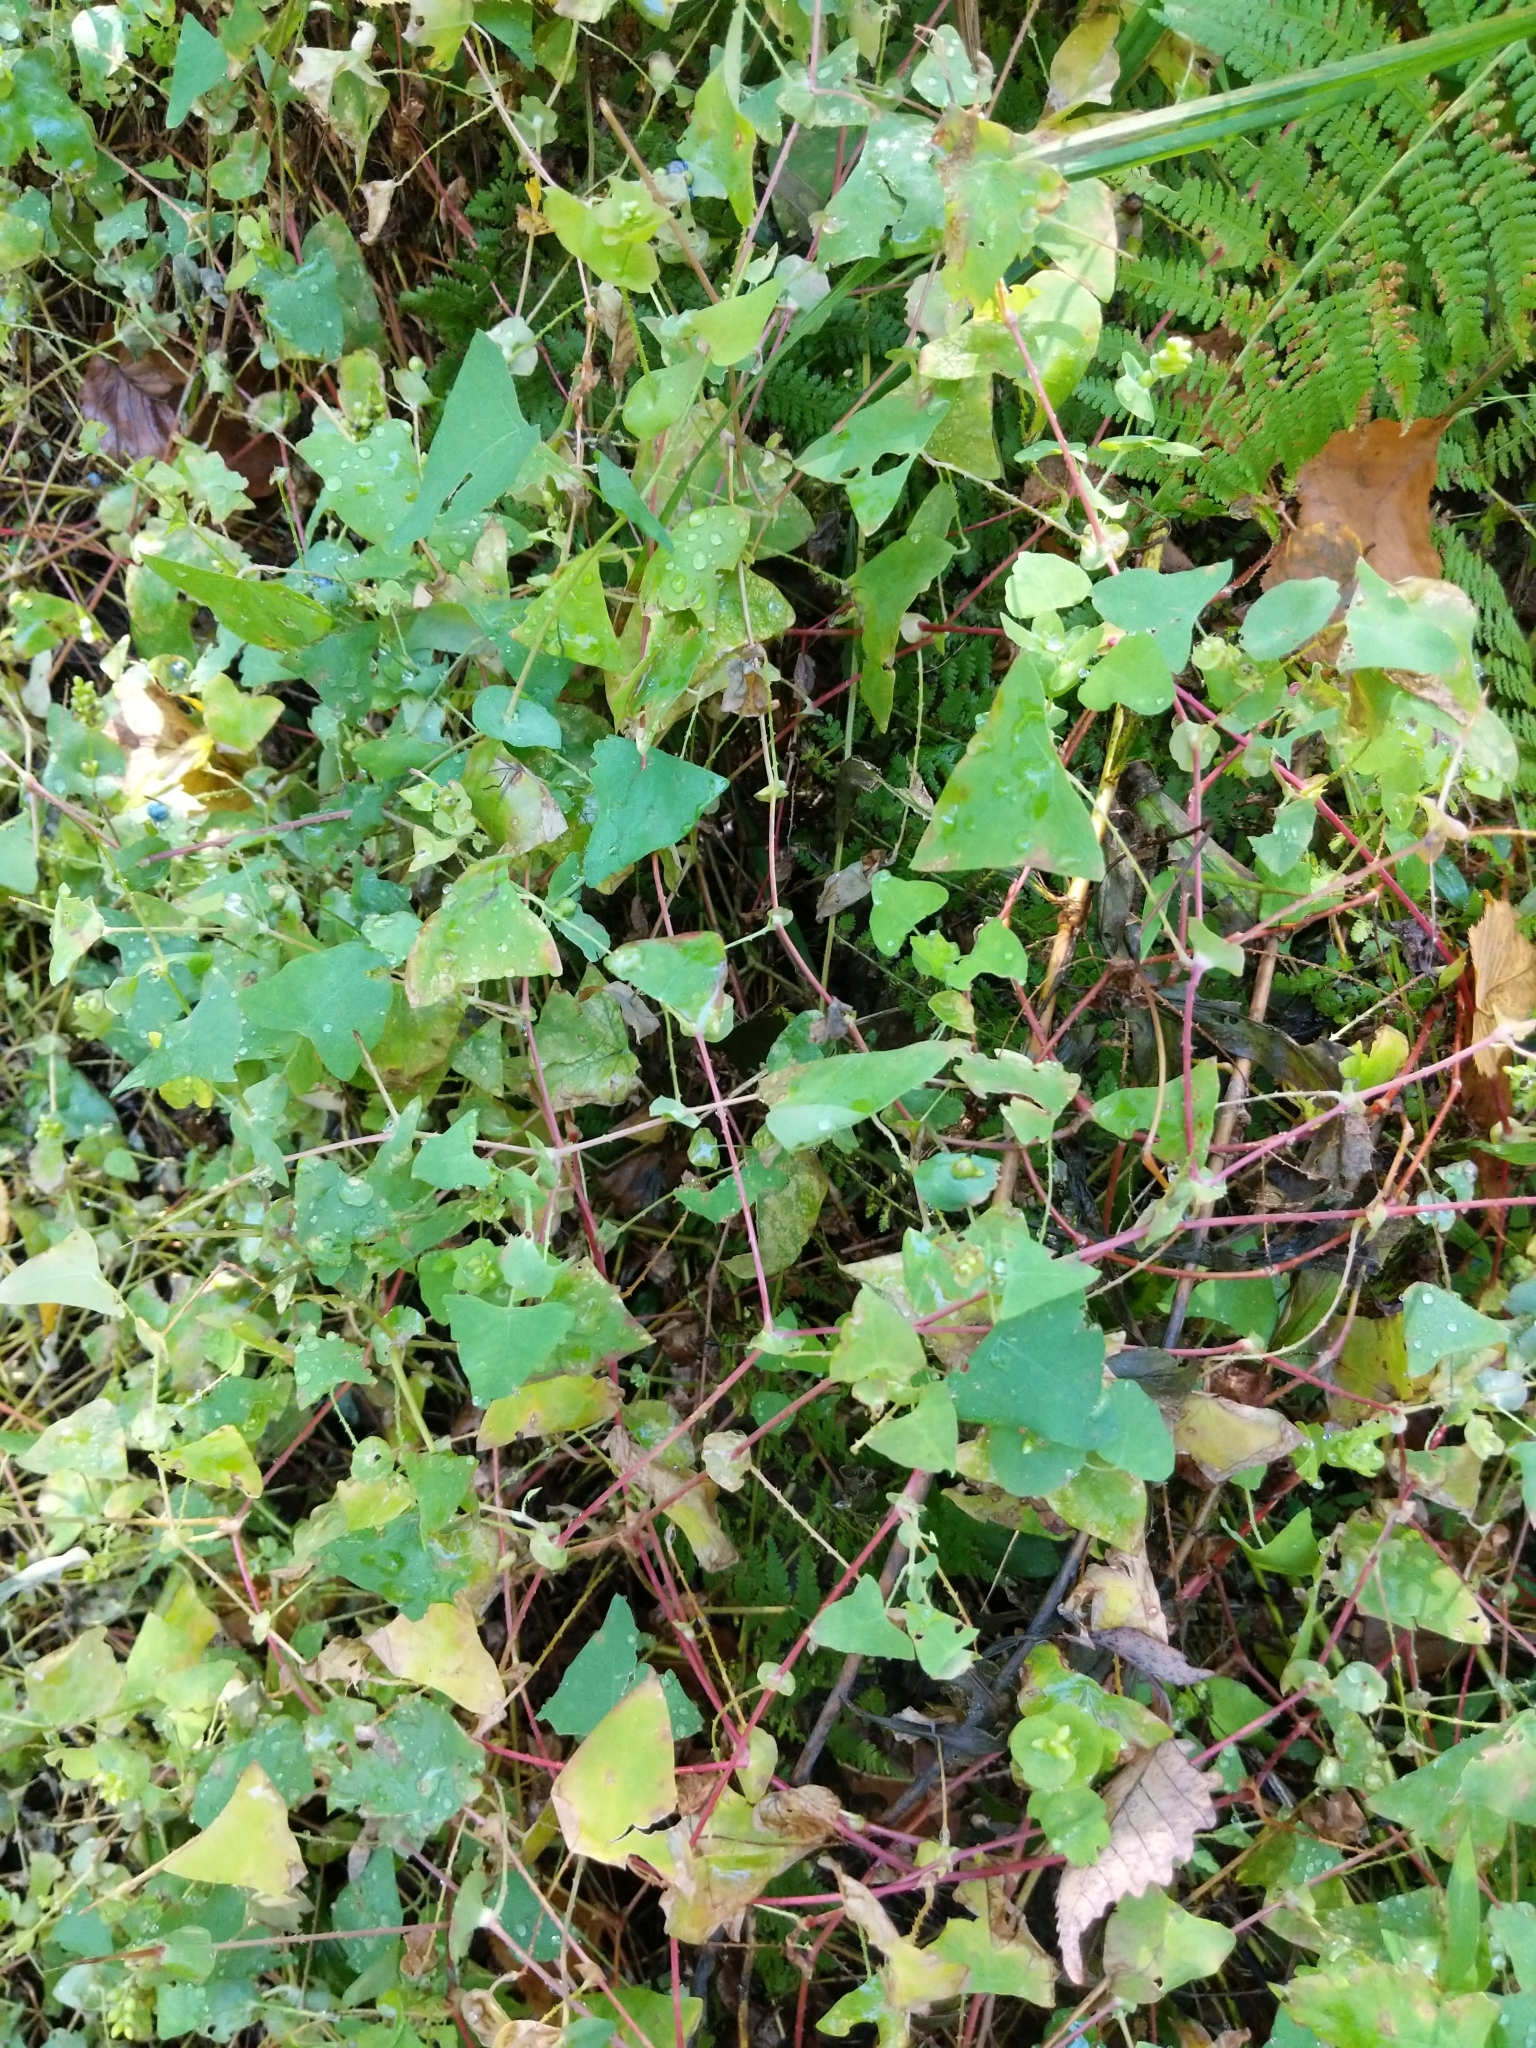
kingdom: Plantae
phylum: Tracheophyta
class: Magnoliopsida
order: Caryophyllales
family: Polygonaceae
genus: Persicaria
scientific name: Persicaria perfoliata
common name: Asiatic tearthumb
